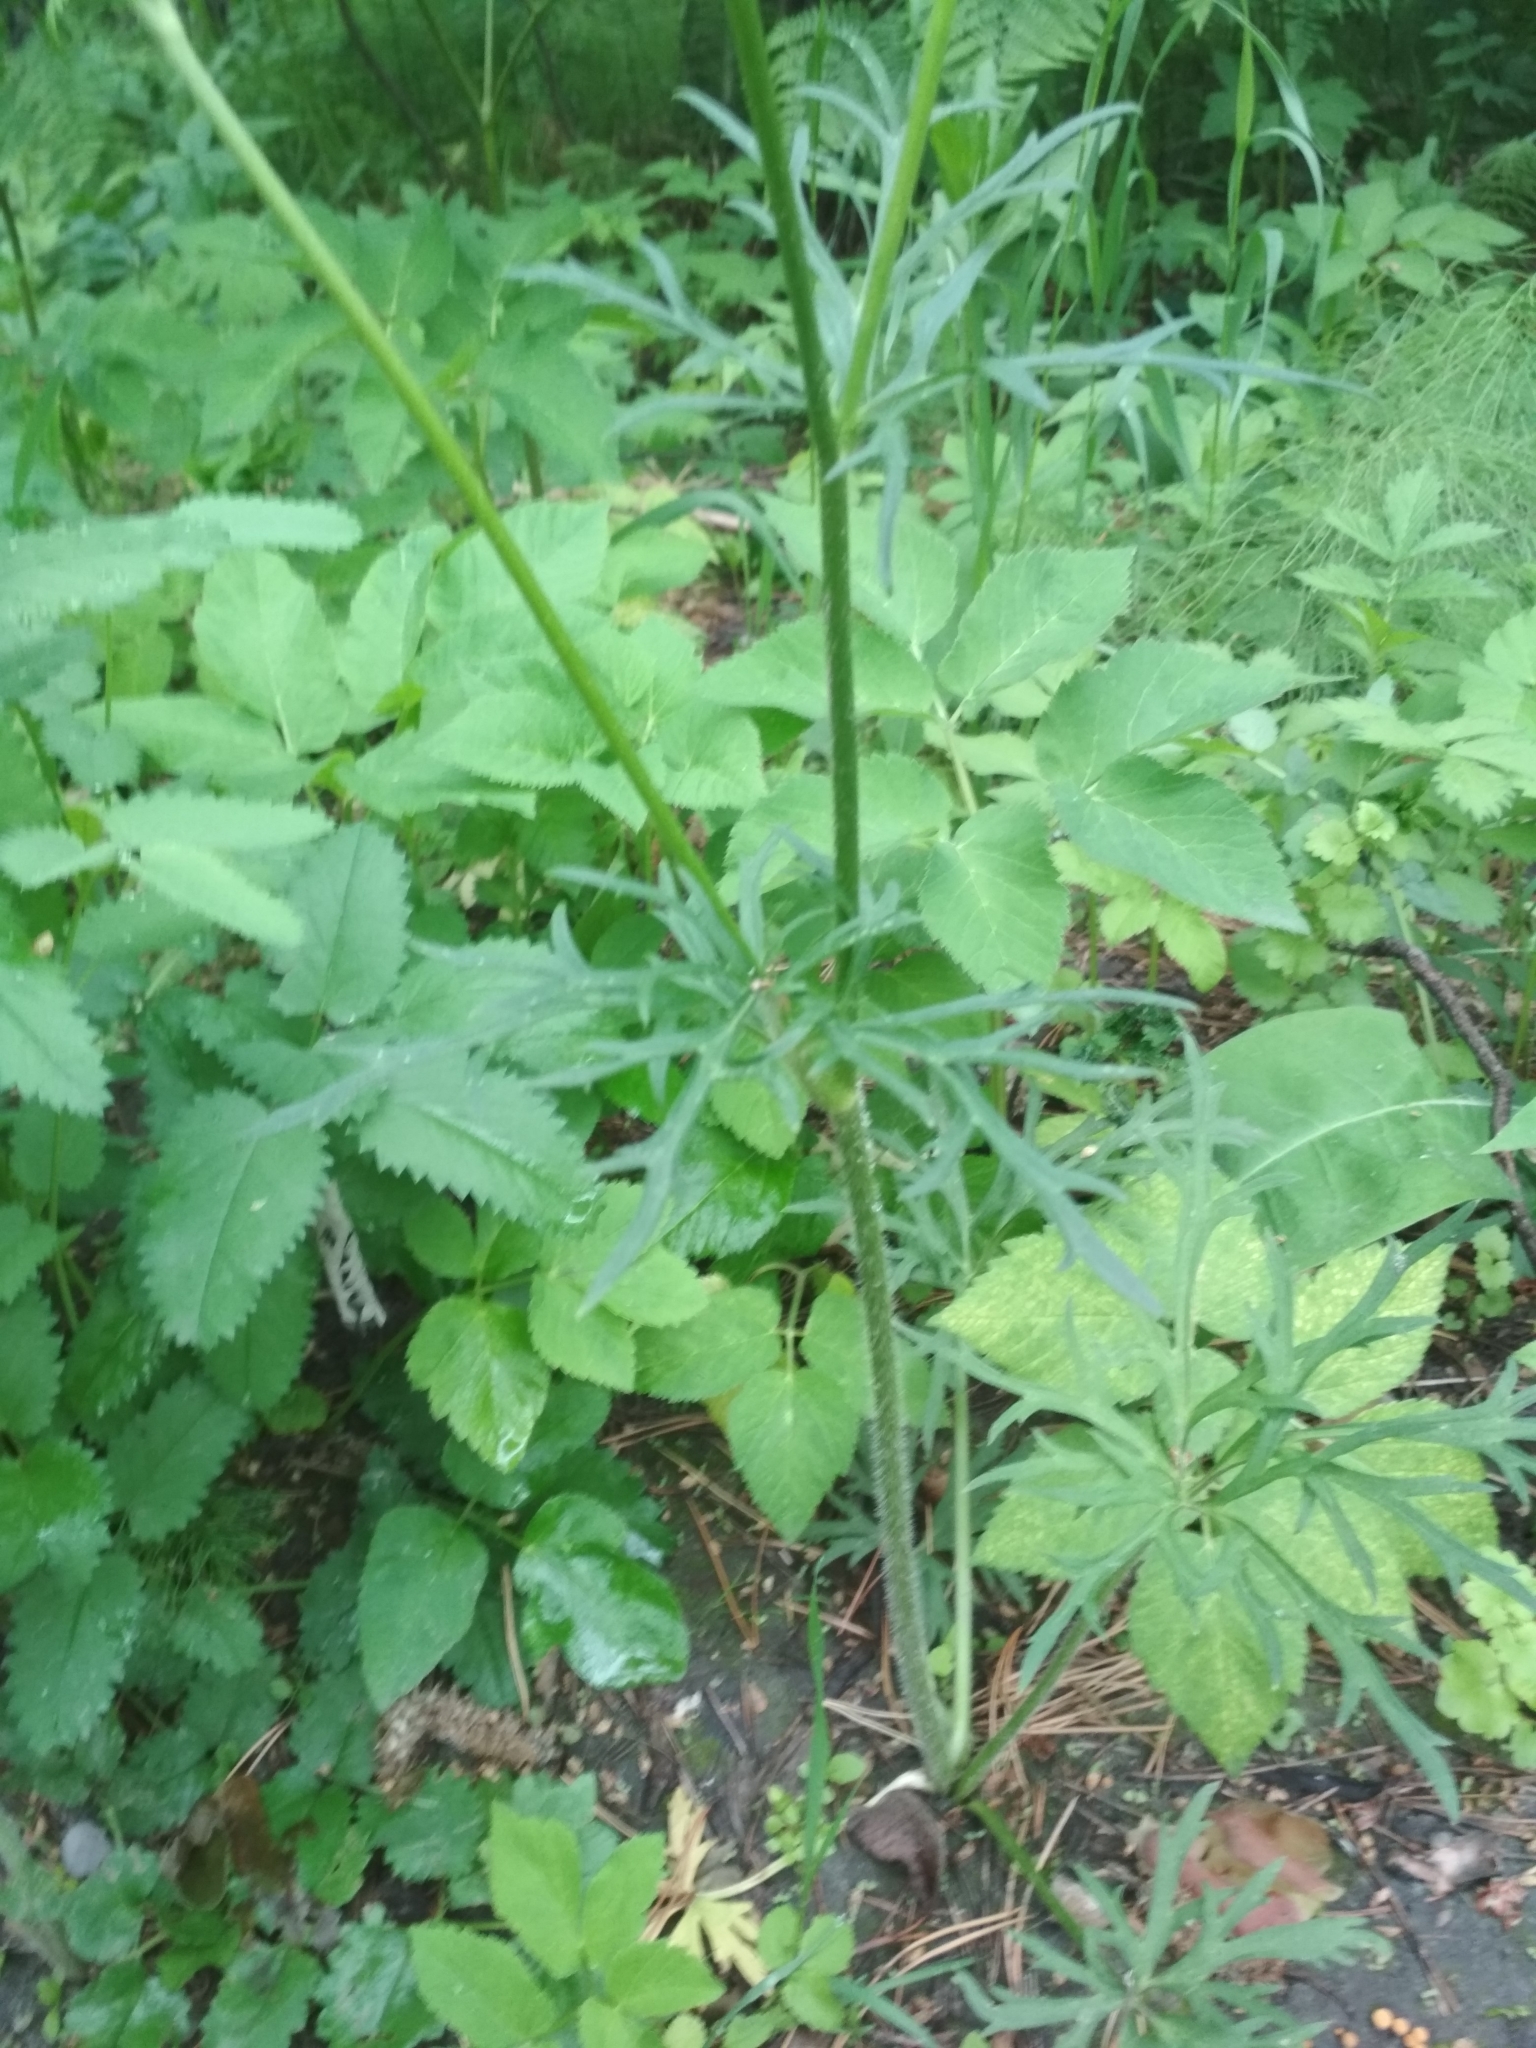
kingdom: Plantae
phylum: Tracheophyta
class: Magnoliopsida
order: Ranunculales
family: Ranunculaceae
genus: Ranunculus
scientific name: Ranunculus polyanthemos
